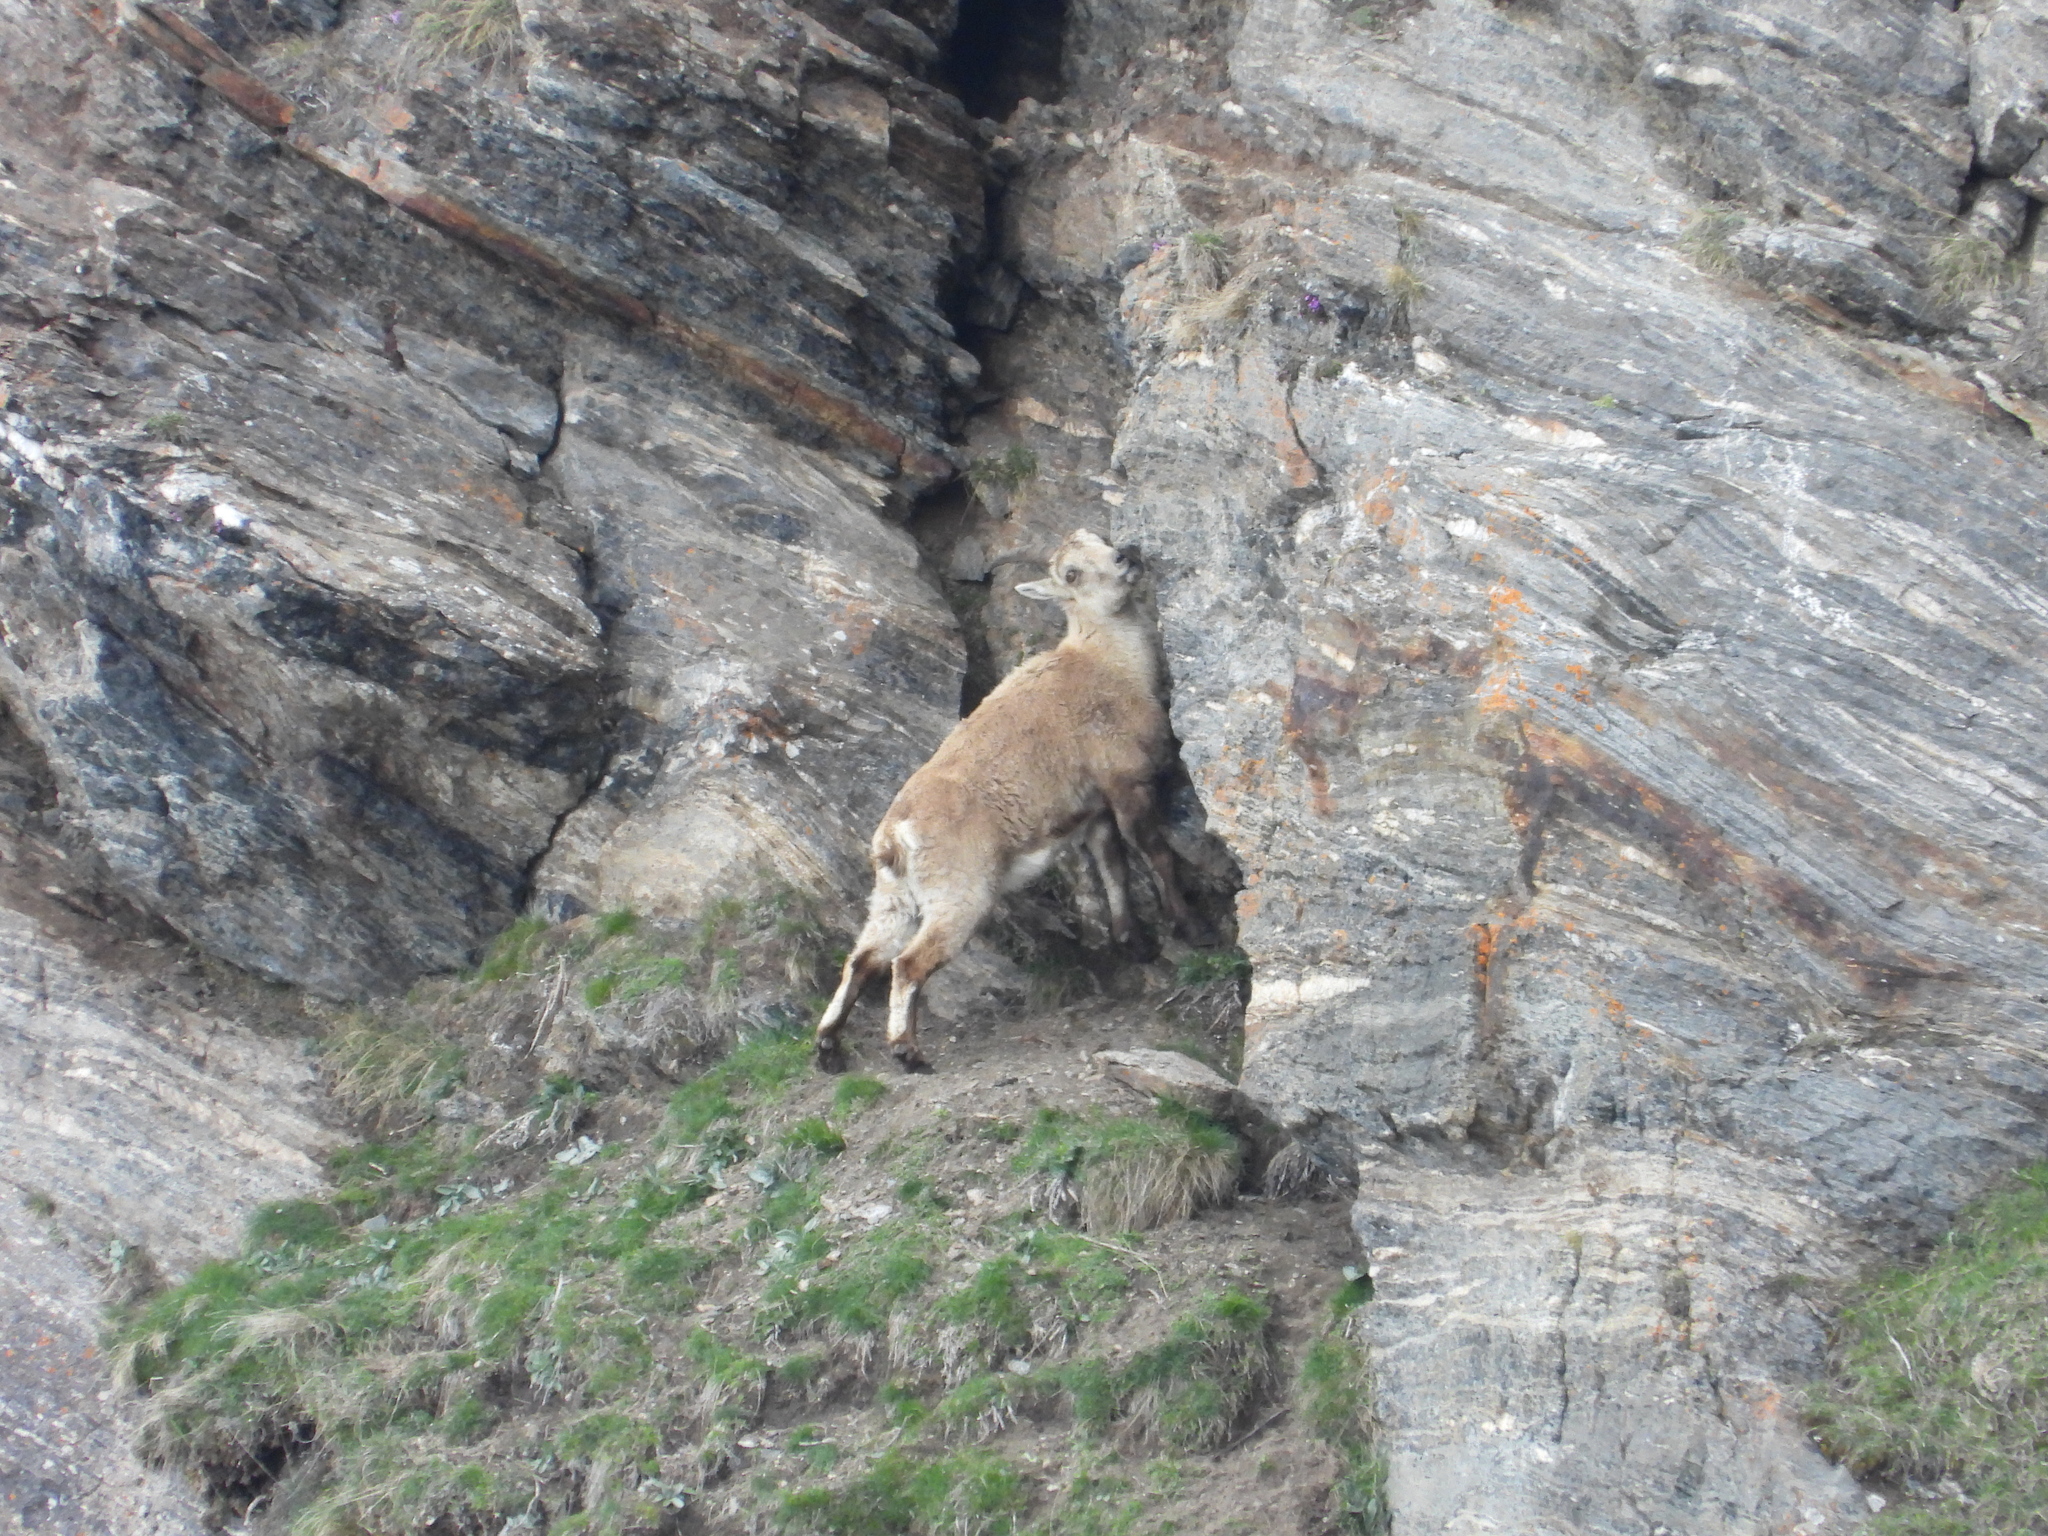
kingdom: Animalia
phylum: Chordata
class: Mammalia
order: Artiodactyla
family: Bovidae
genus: Capra
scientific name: Capra ibex
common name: Alpine ibex
